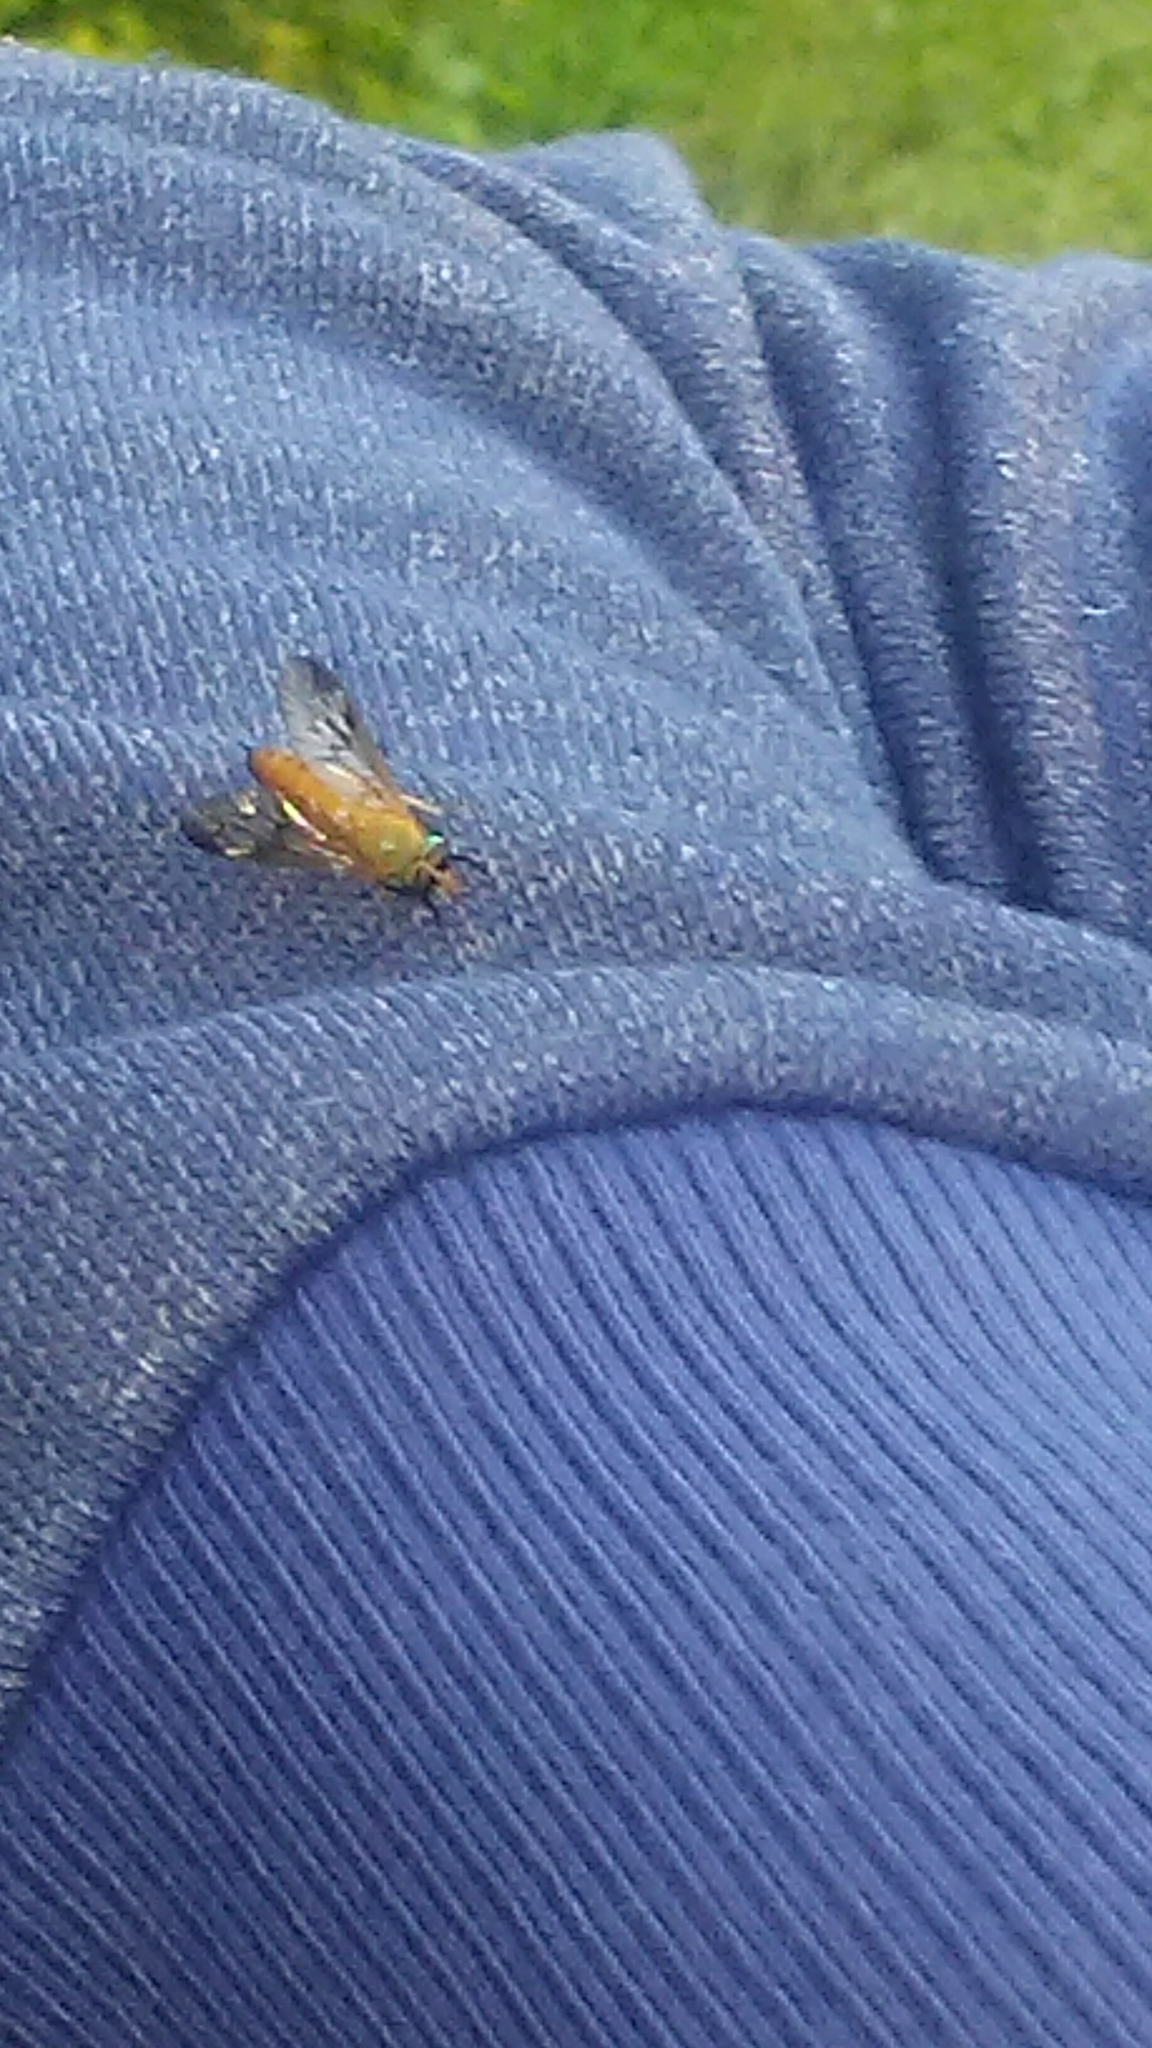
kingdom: Animalia
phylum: Arthropoda
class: Insecta
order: Diptera
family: Tabanidae
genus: Diachlorus
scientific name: Diachlorus ferrugatus
